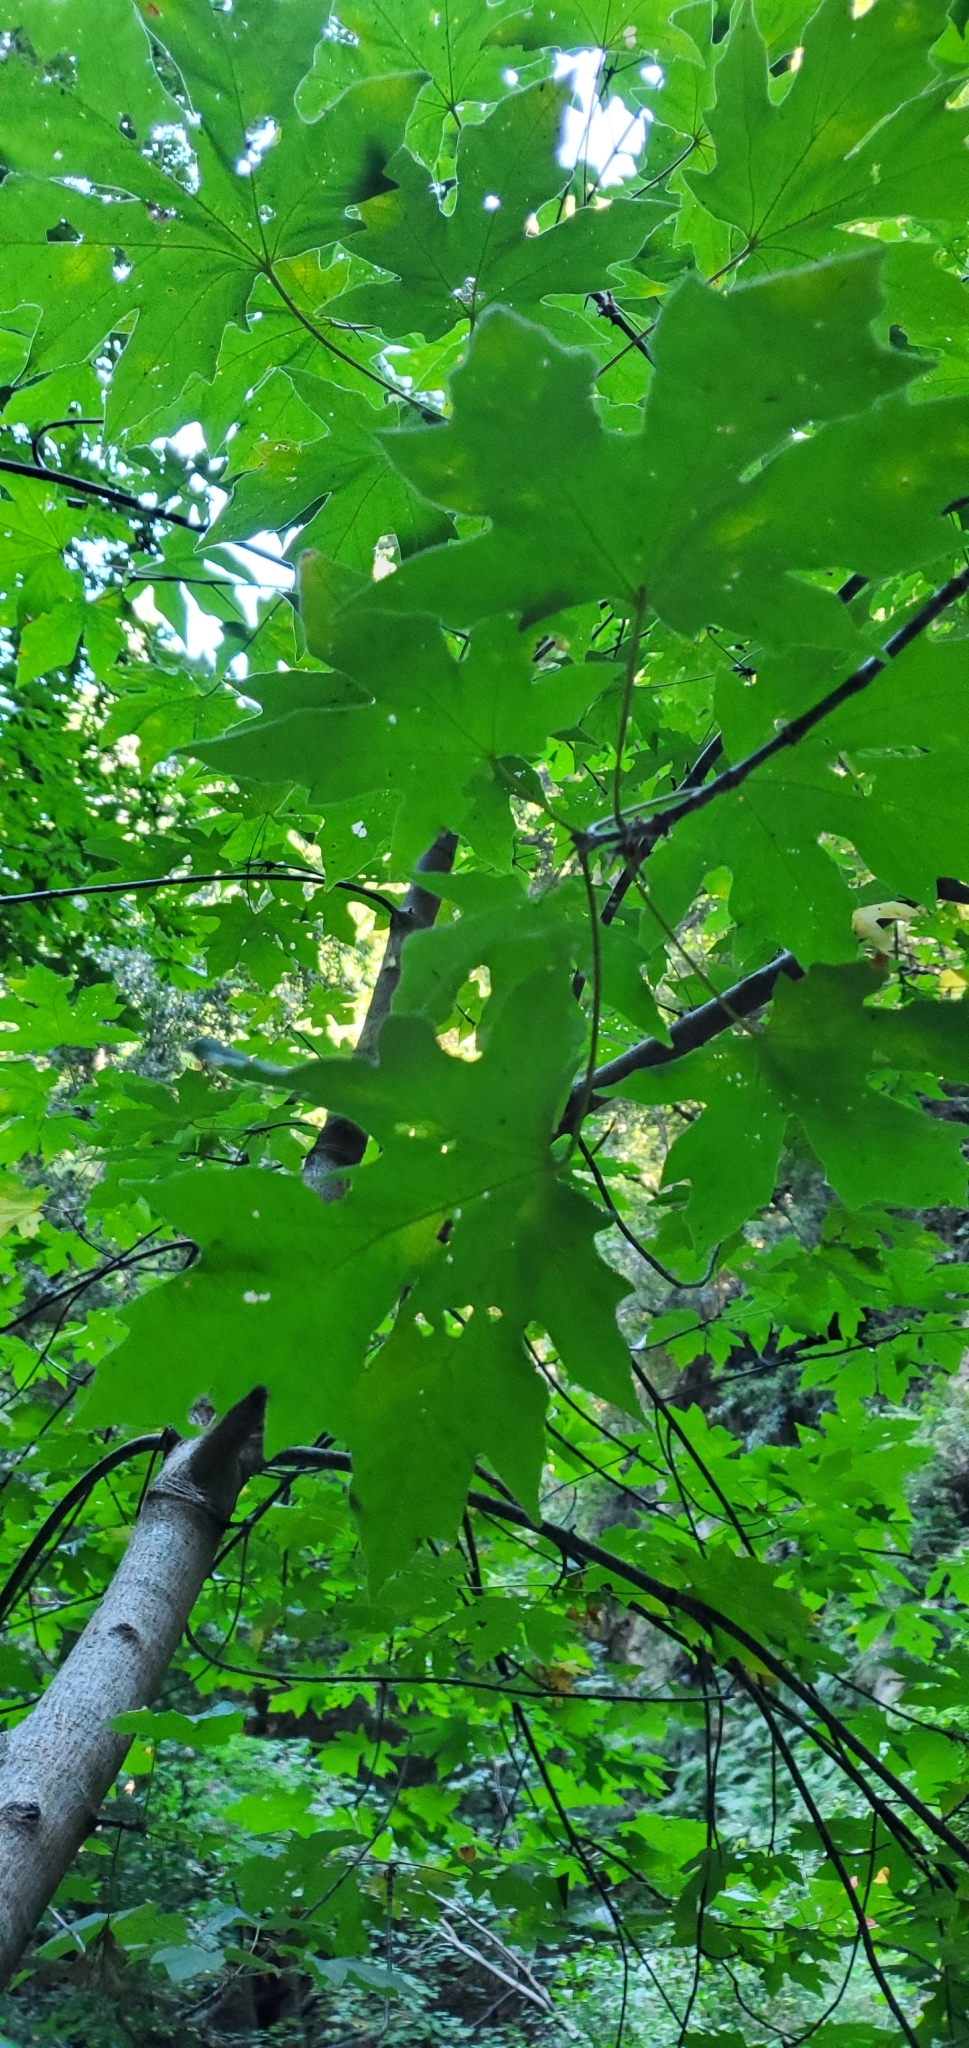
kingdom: Plantae
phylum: Tracheophyta
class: Magnoliopsida
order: Sapindales
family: Sapindaceae
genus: Acer
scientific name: Acer macrophyllum
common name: Oregon maple
